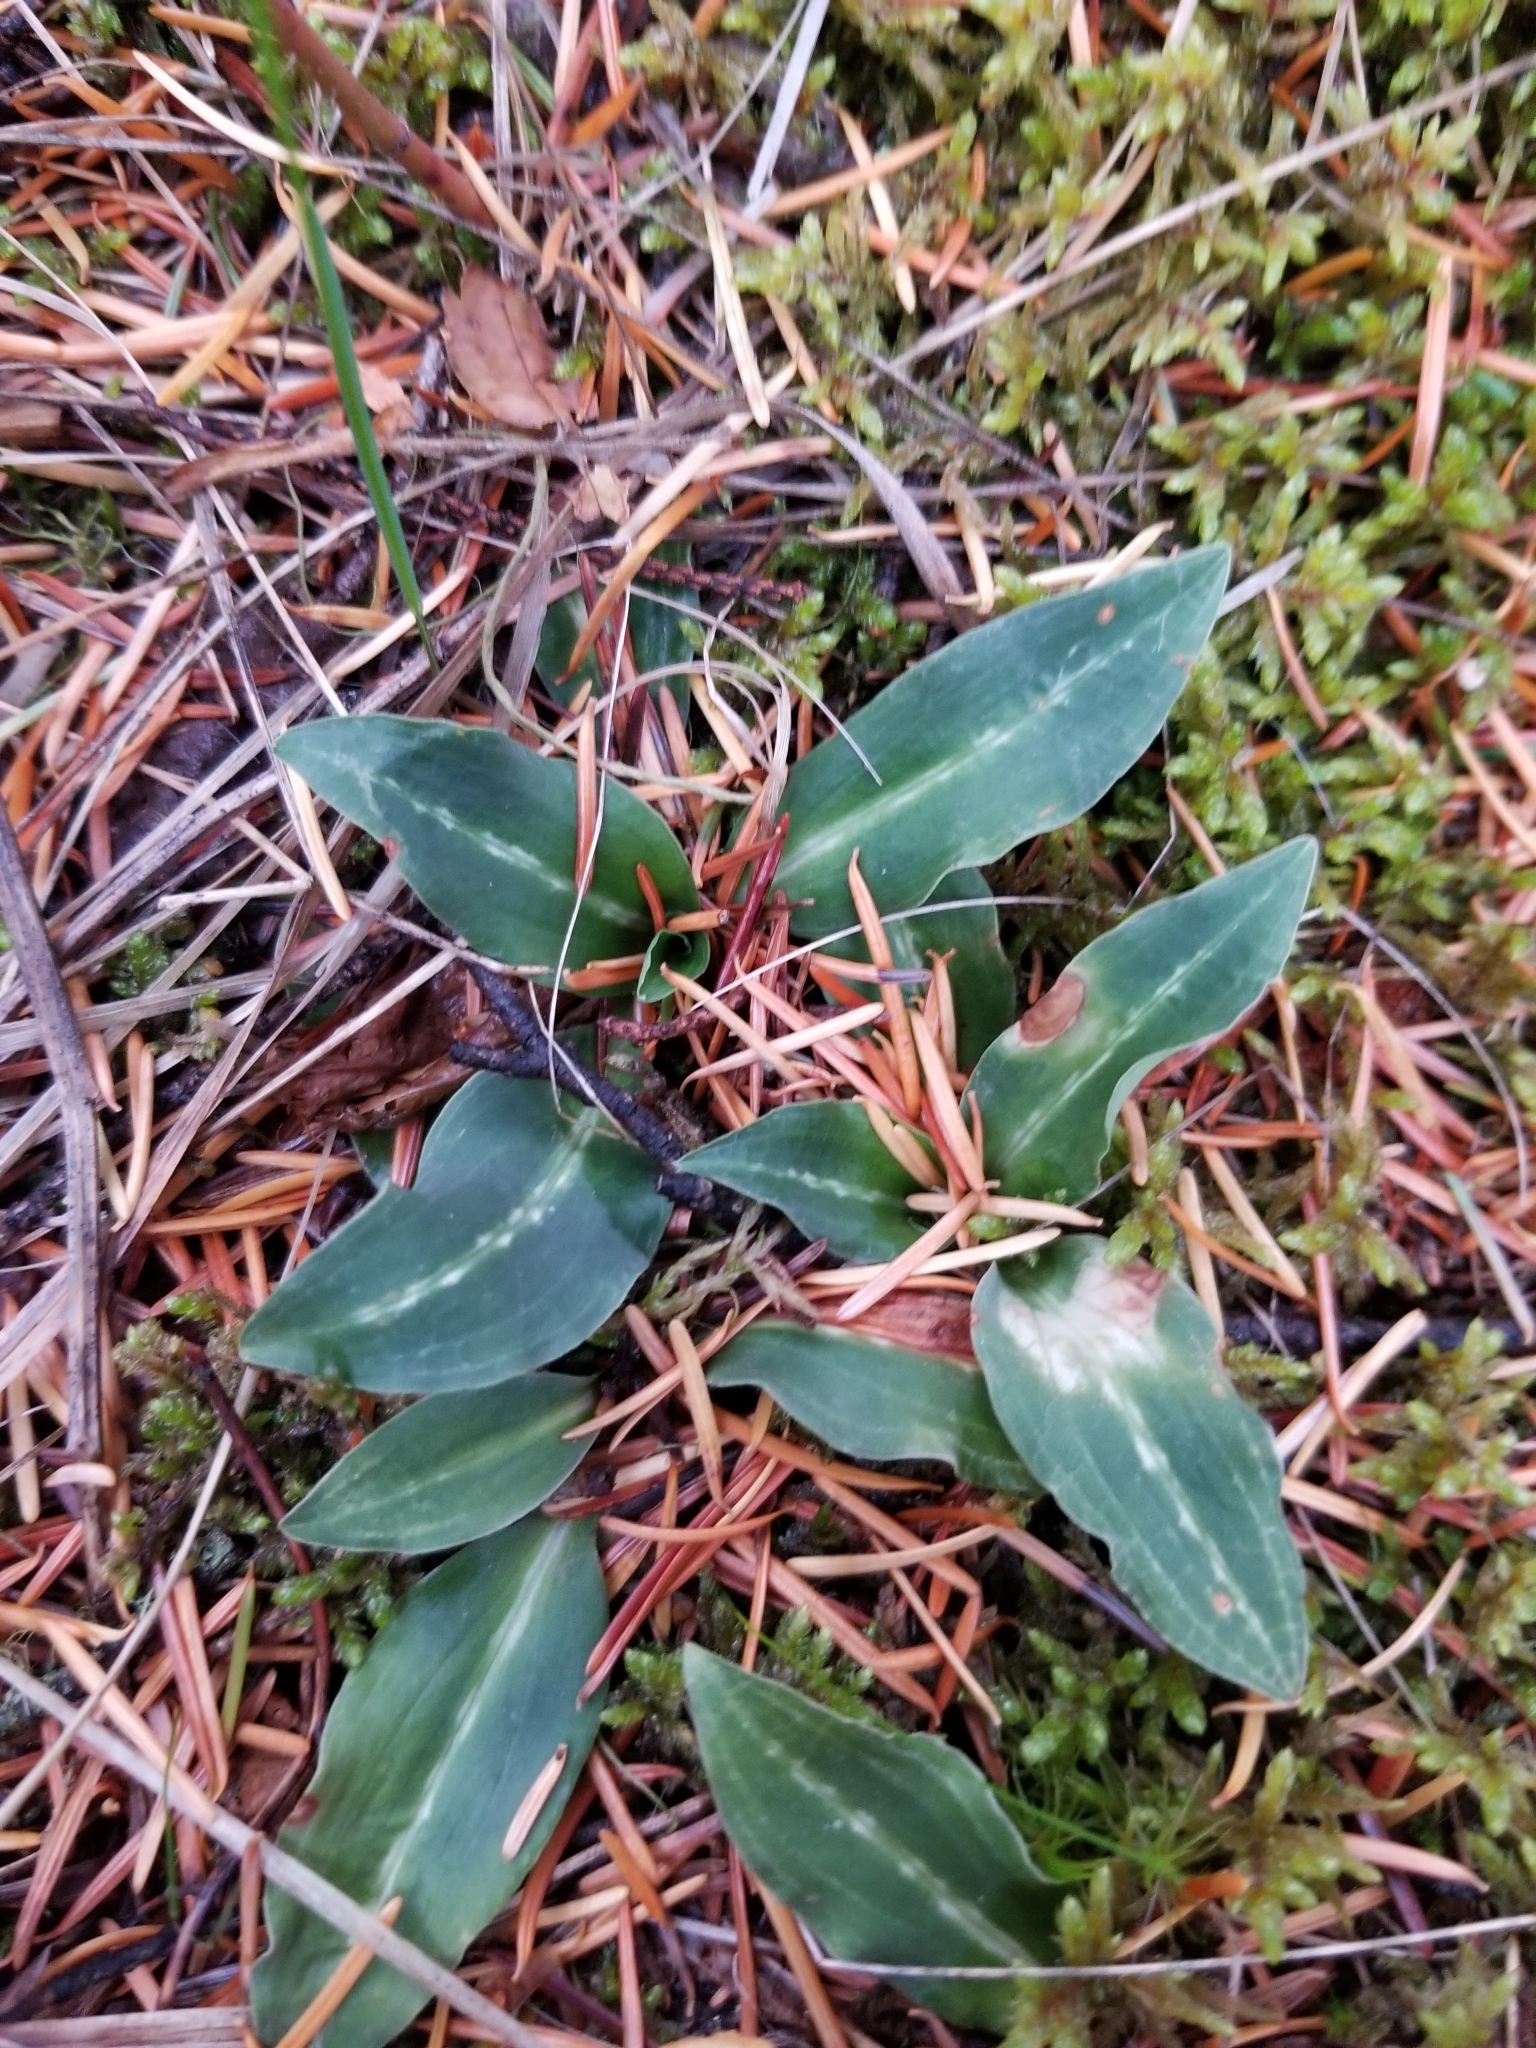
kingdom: Plantae
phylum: Tracheophyta
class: Liliopsida
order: Asparagales
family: Orchidaceae
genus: Goodyera
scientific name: Goodyera oblongifolia
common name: Giant rattlesnake-plantain
